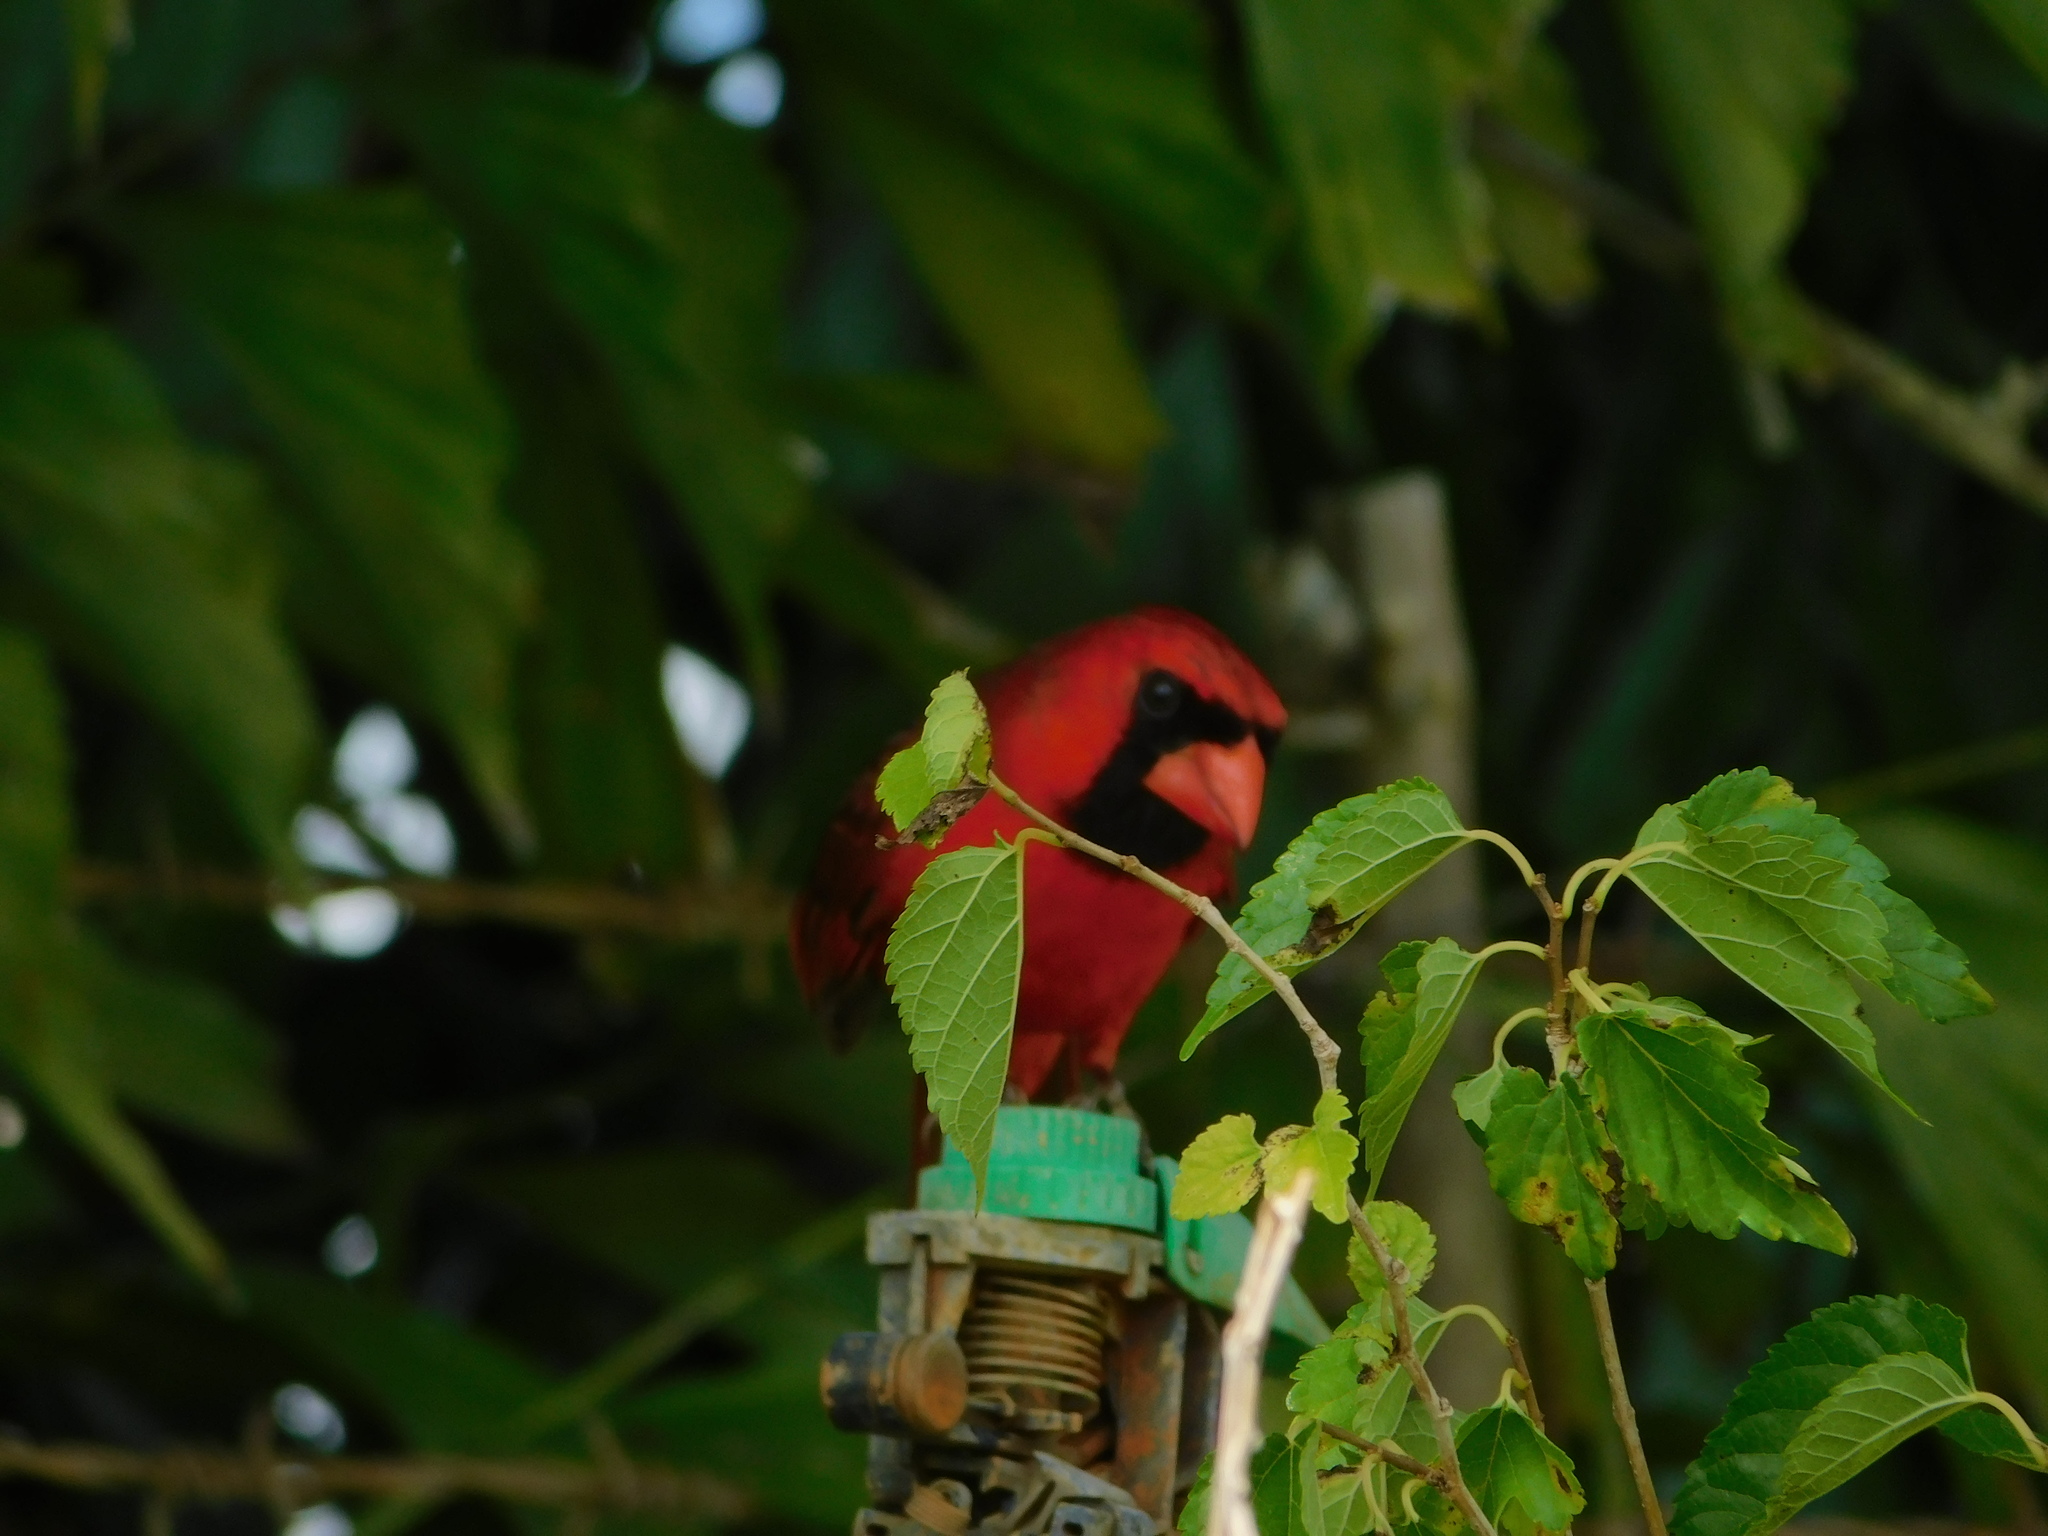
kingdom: Animalia
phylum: Chordata
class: Aves
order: Passeriformes
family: Cardinalidae
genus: Cardinalis
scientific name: Cardinalis cardinalis
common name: Northern cardinal
